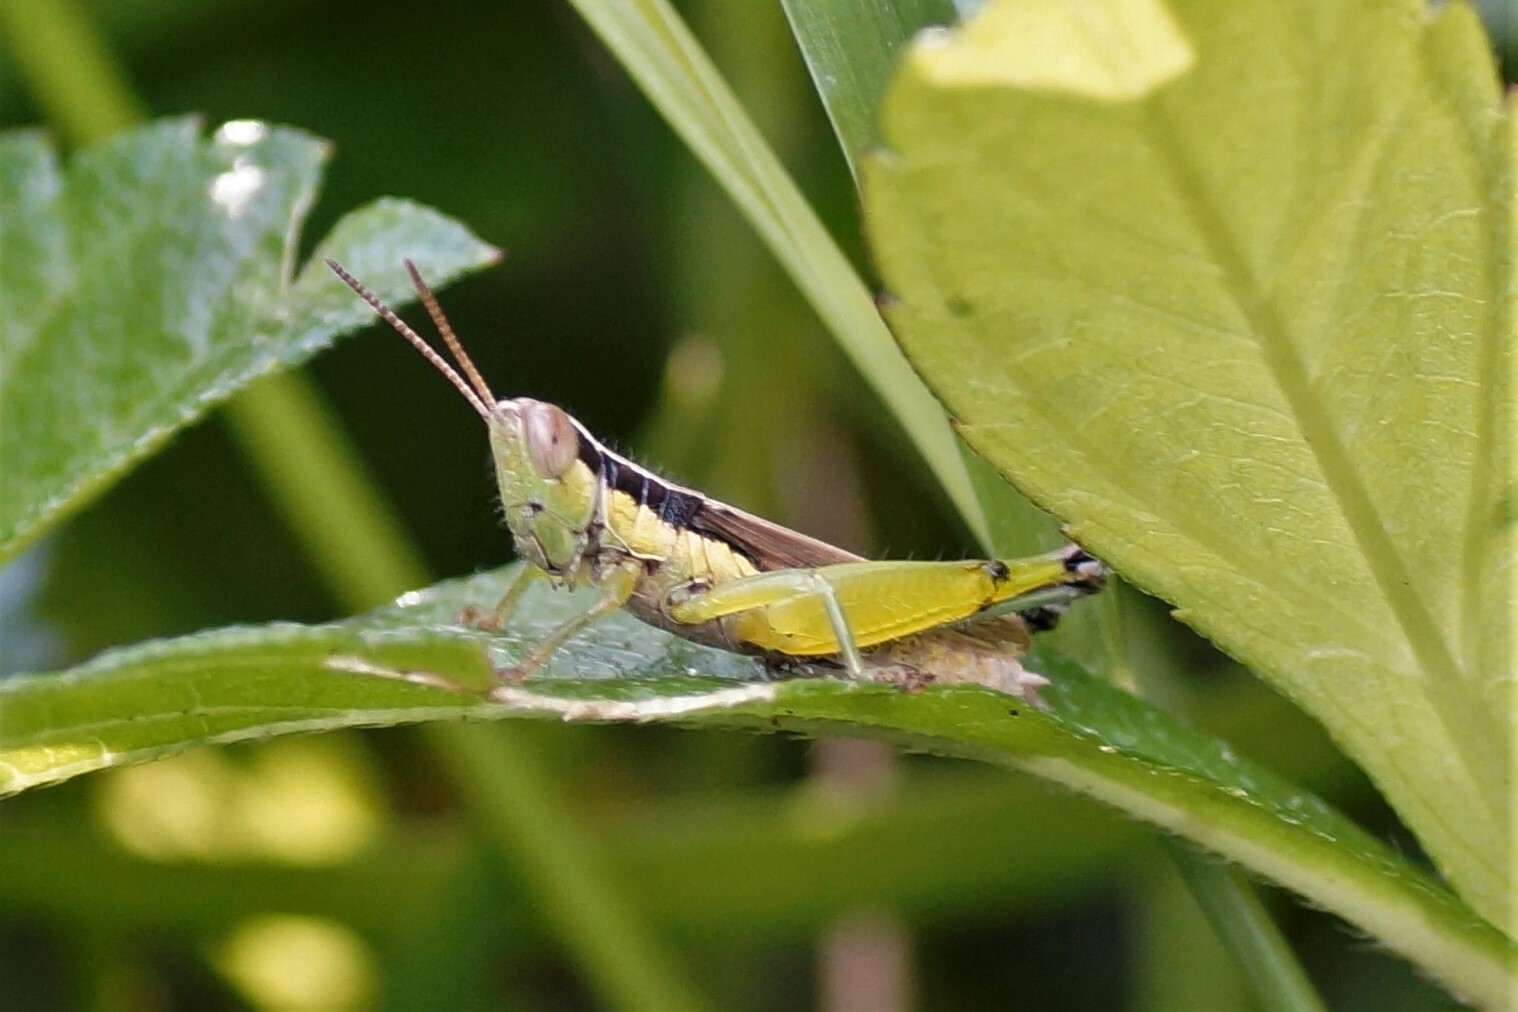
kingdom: Animalia
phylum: Arthropoda
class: Insecta
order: Orthoptera
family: Acrididae
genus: Bermius
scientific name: Bermius odontocercus
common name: Eastern toothed bermius
